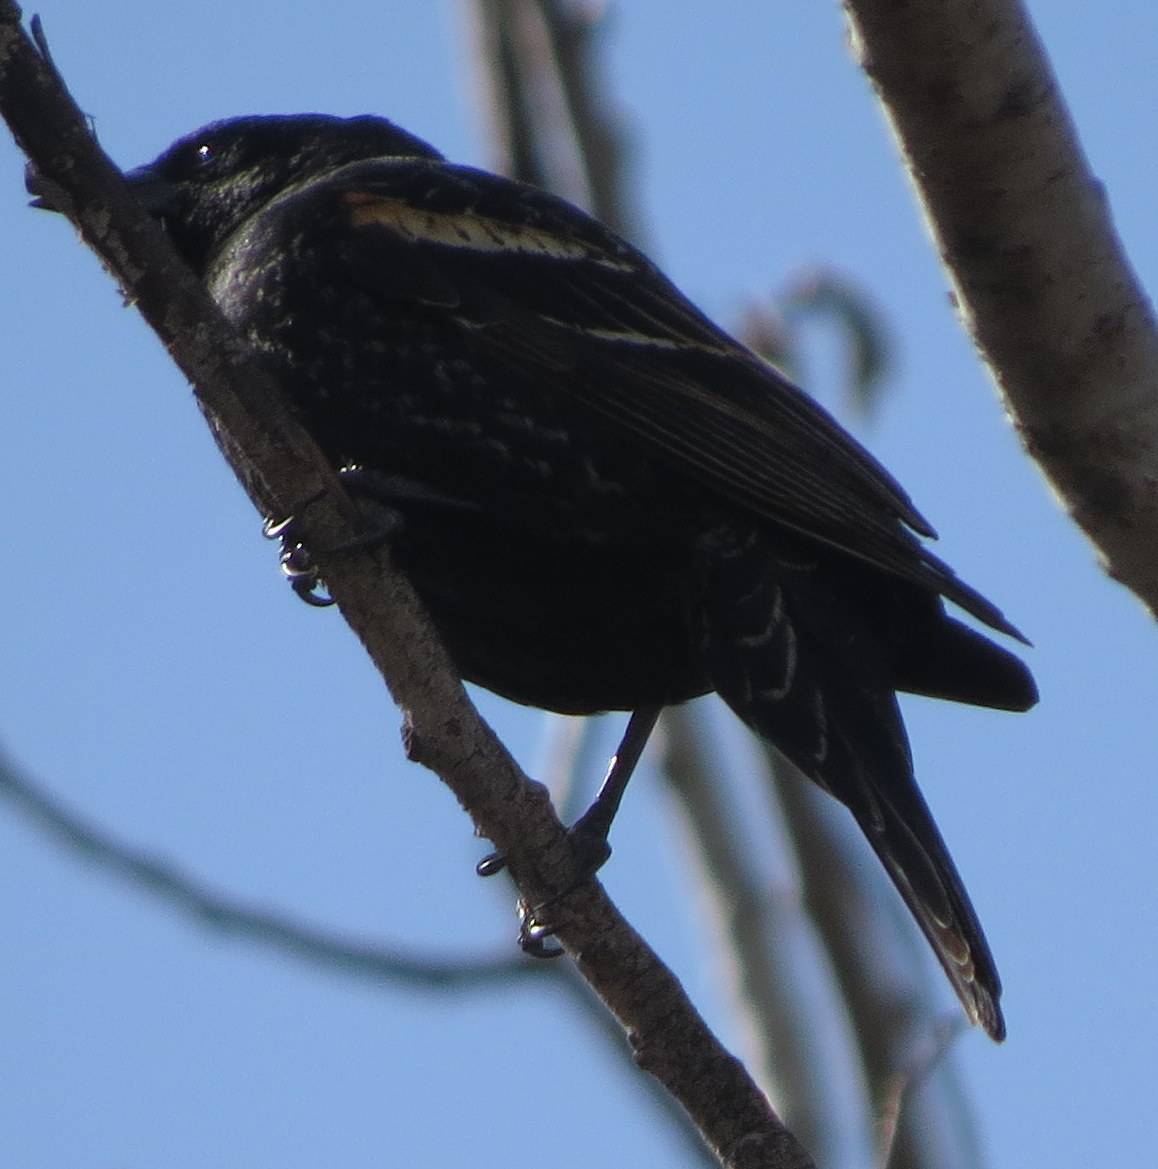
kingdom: Animalia
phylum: Chordata
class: Aves
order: Passeriformes
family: Icteridae
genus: Agelaius
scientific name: Agelaius phoeniceus
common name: Red-winged blackbird
